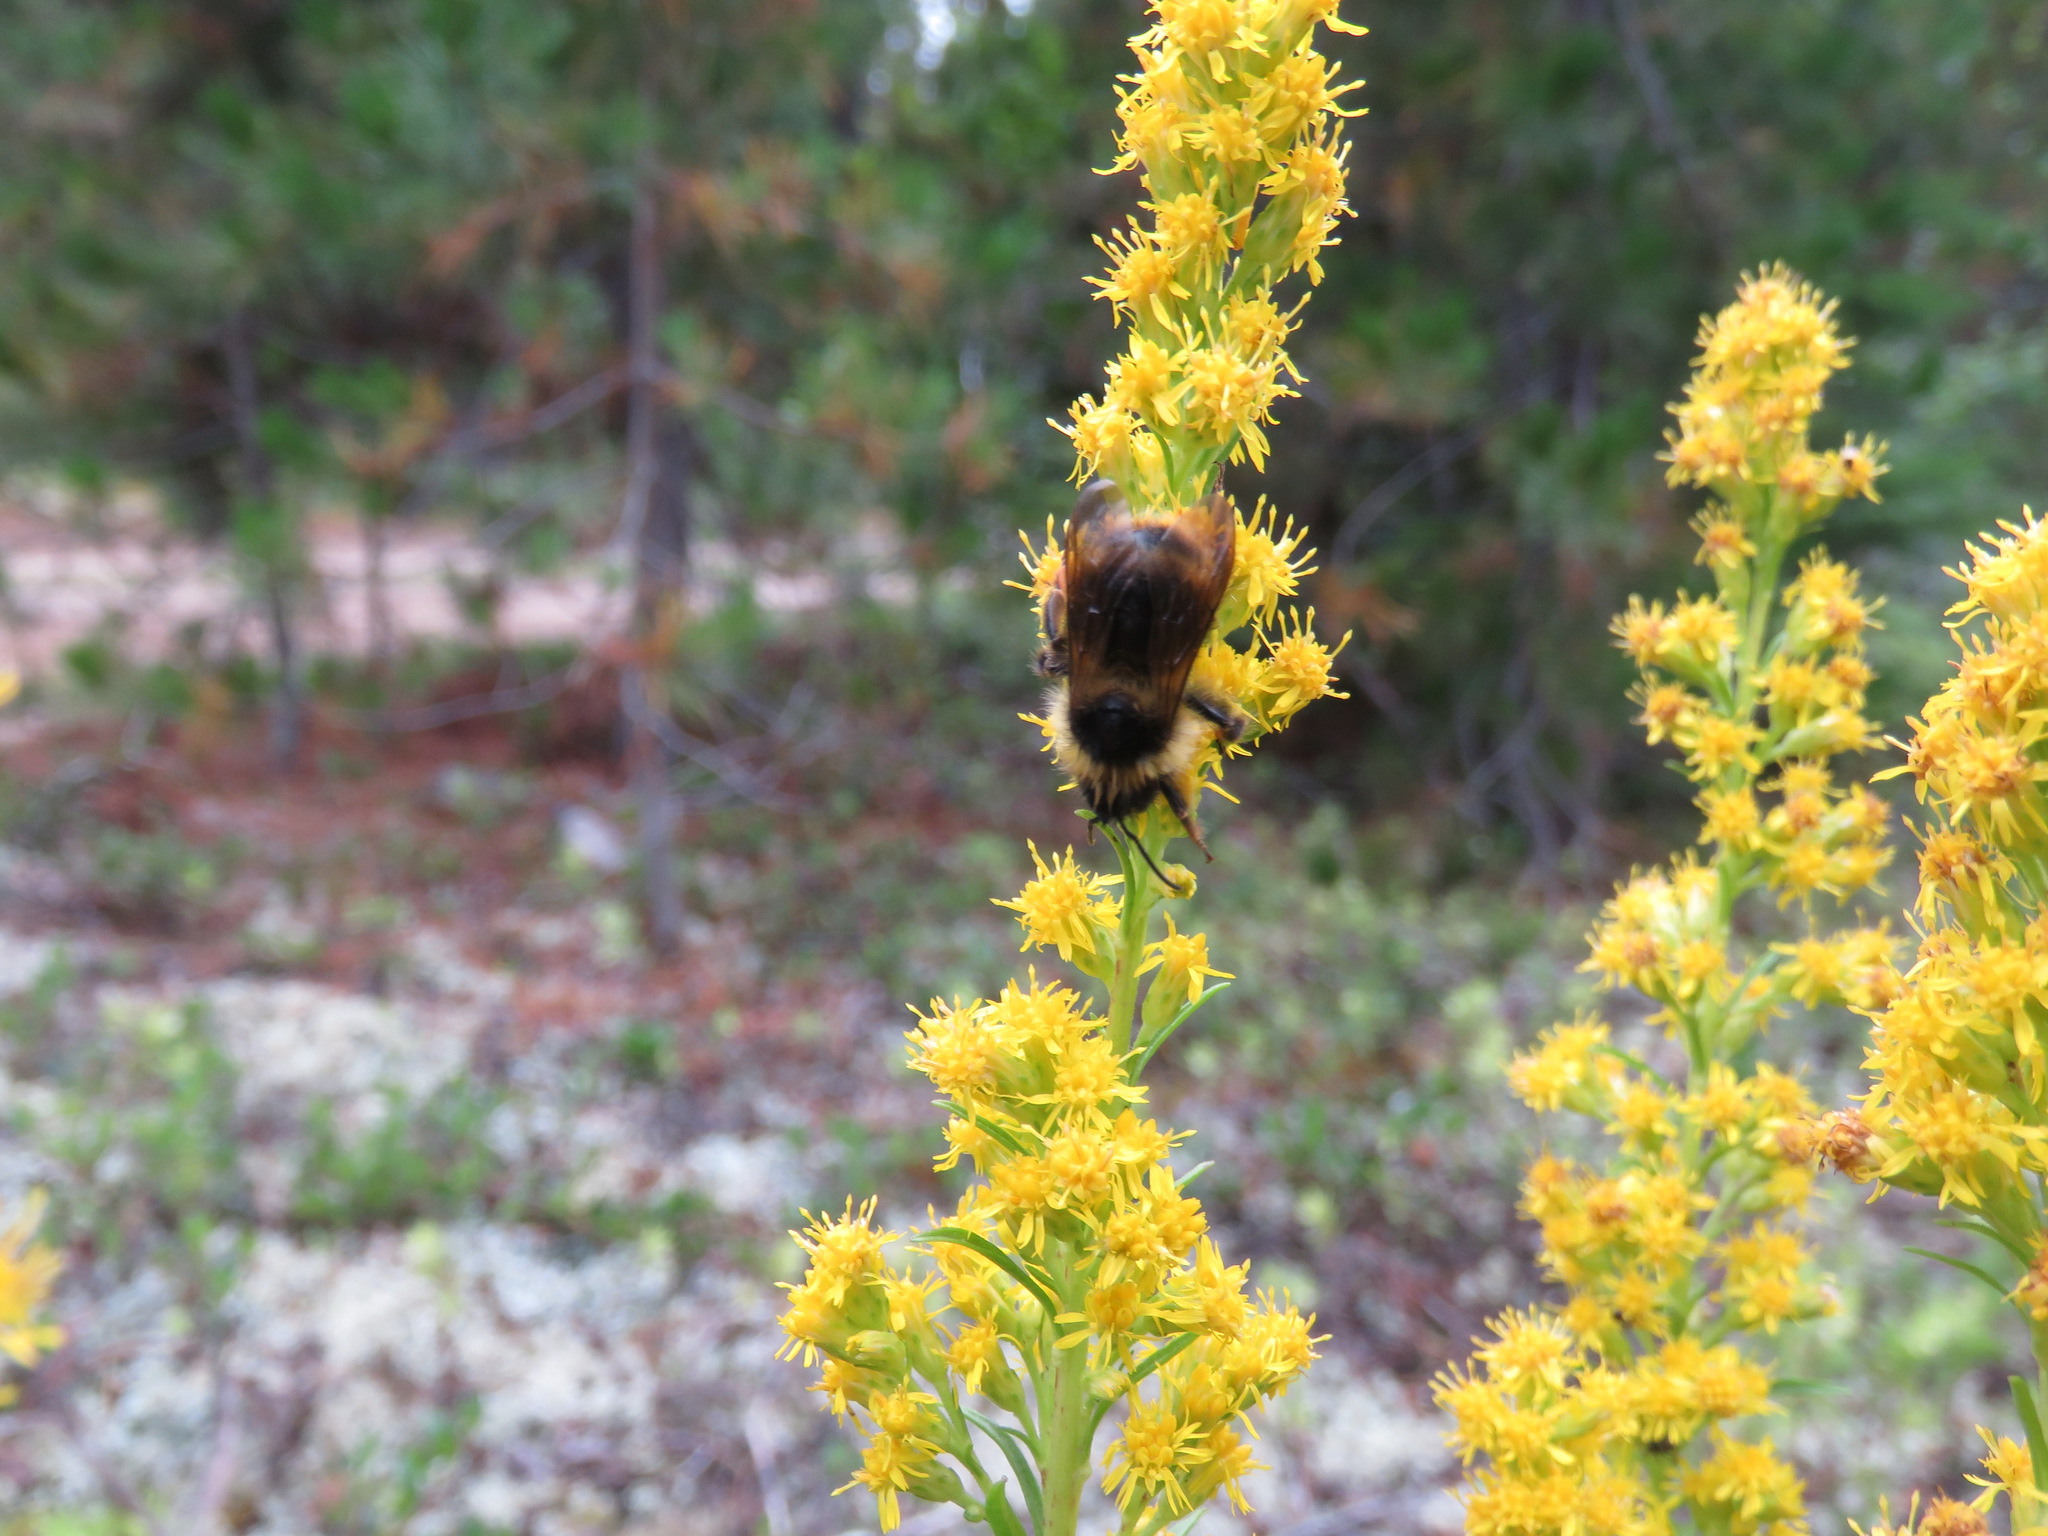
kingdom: Animalia
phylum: Arthropoda
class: Insecta
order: Hymenoptera
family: Apidae
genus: Bombus
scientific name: Bombus flavidus
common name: Fernald cuckoo bumble bee
